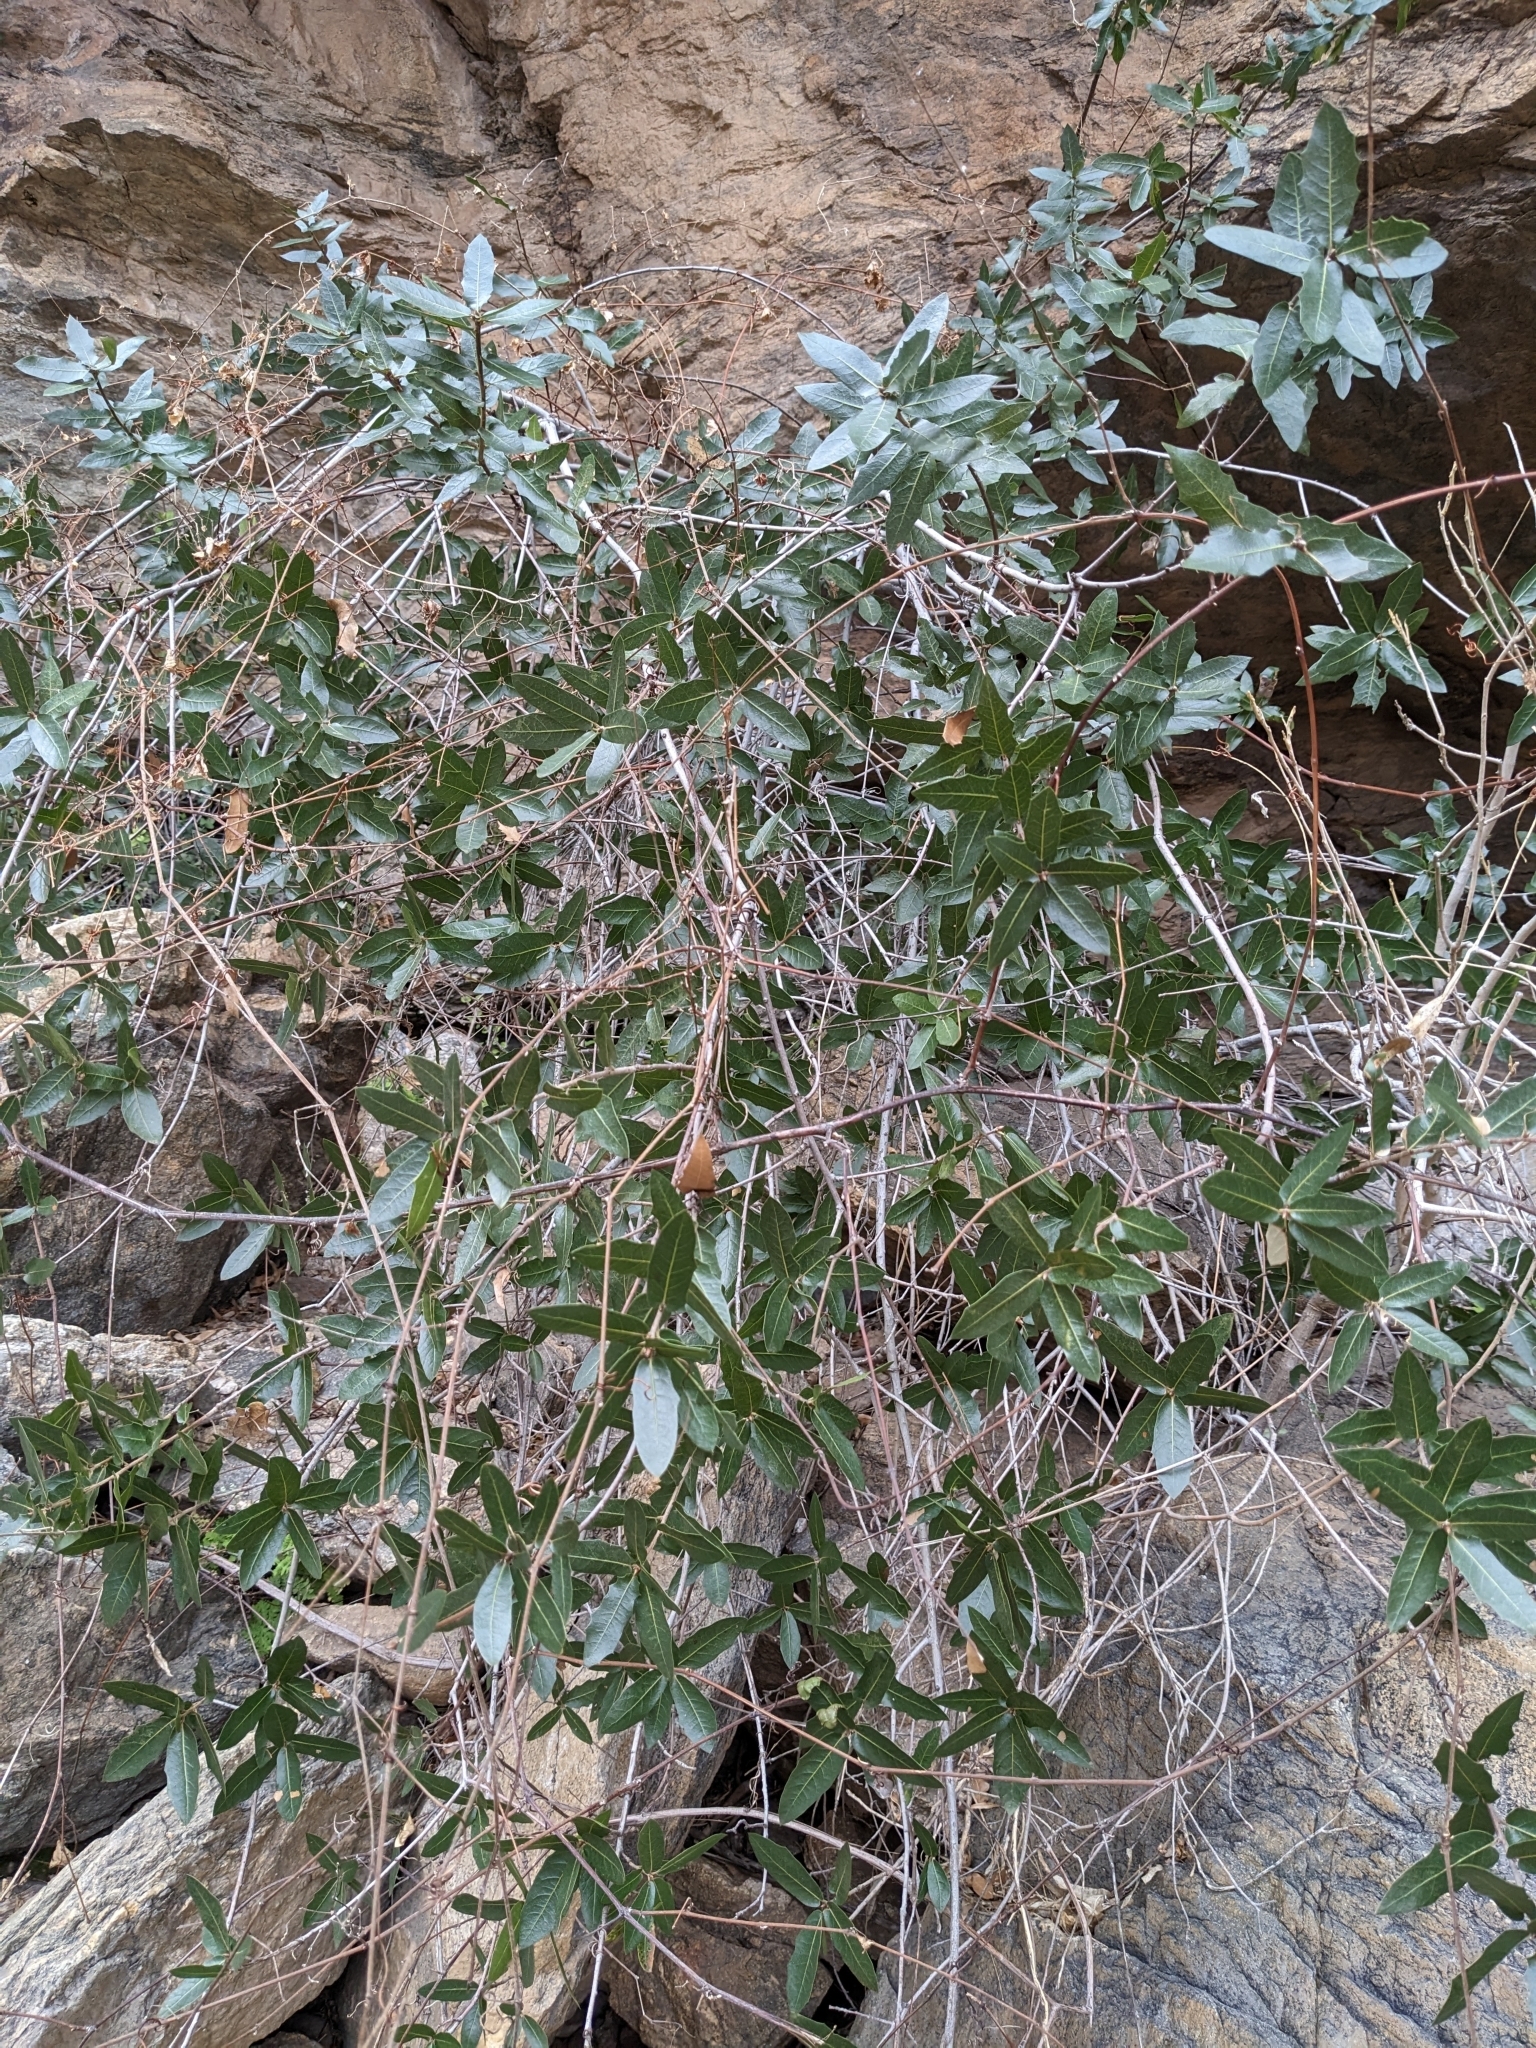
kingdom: Plantae
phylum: Tracheophyta
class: Magnoliopsida
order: Fagales
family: Fagaceae
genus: Quercus
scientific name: Quercus emoryi
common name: Emory oak
